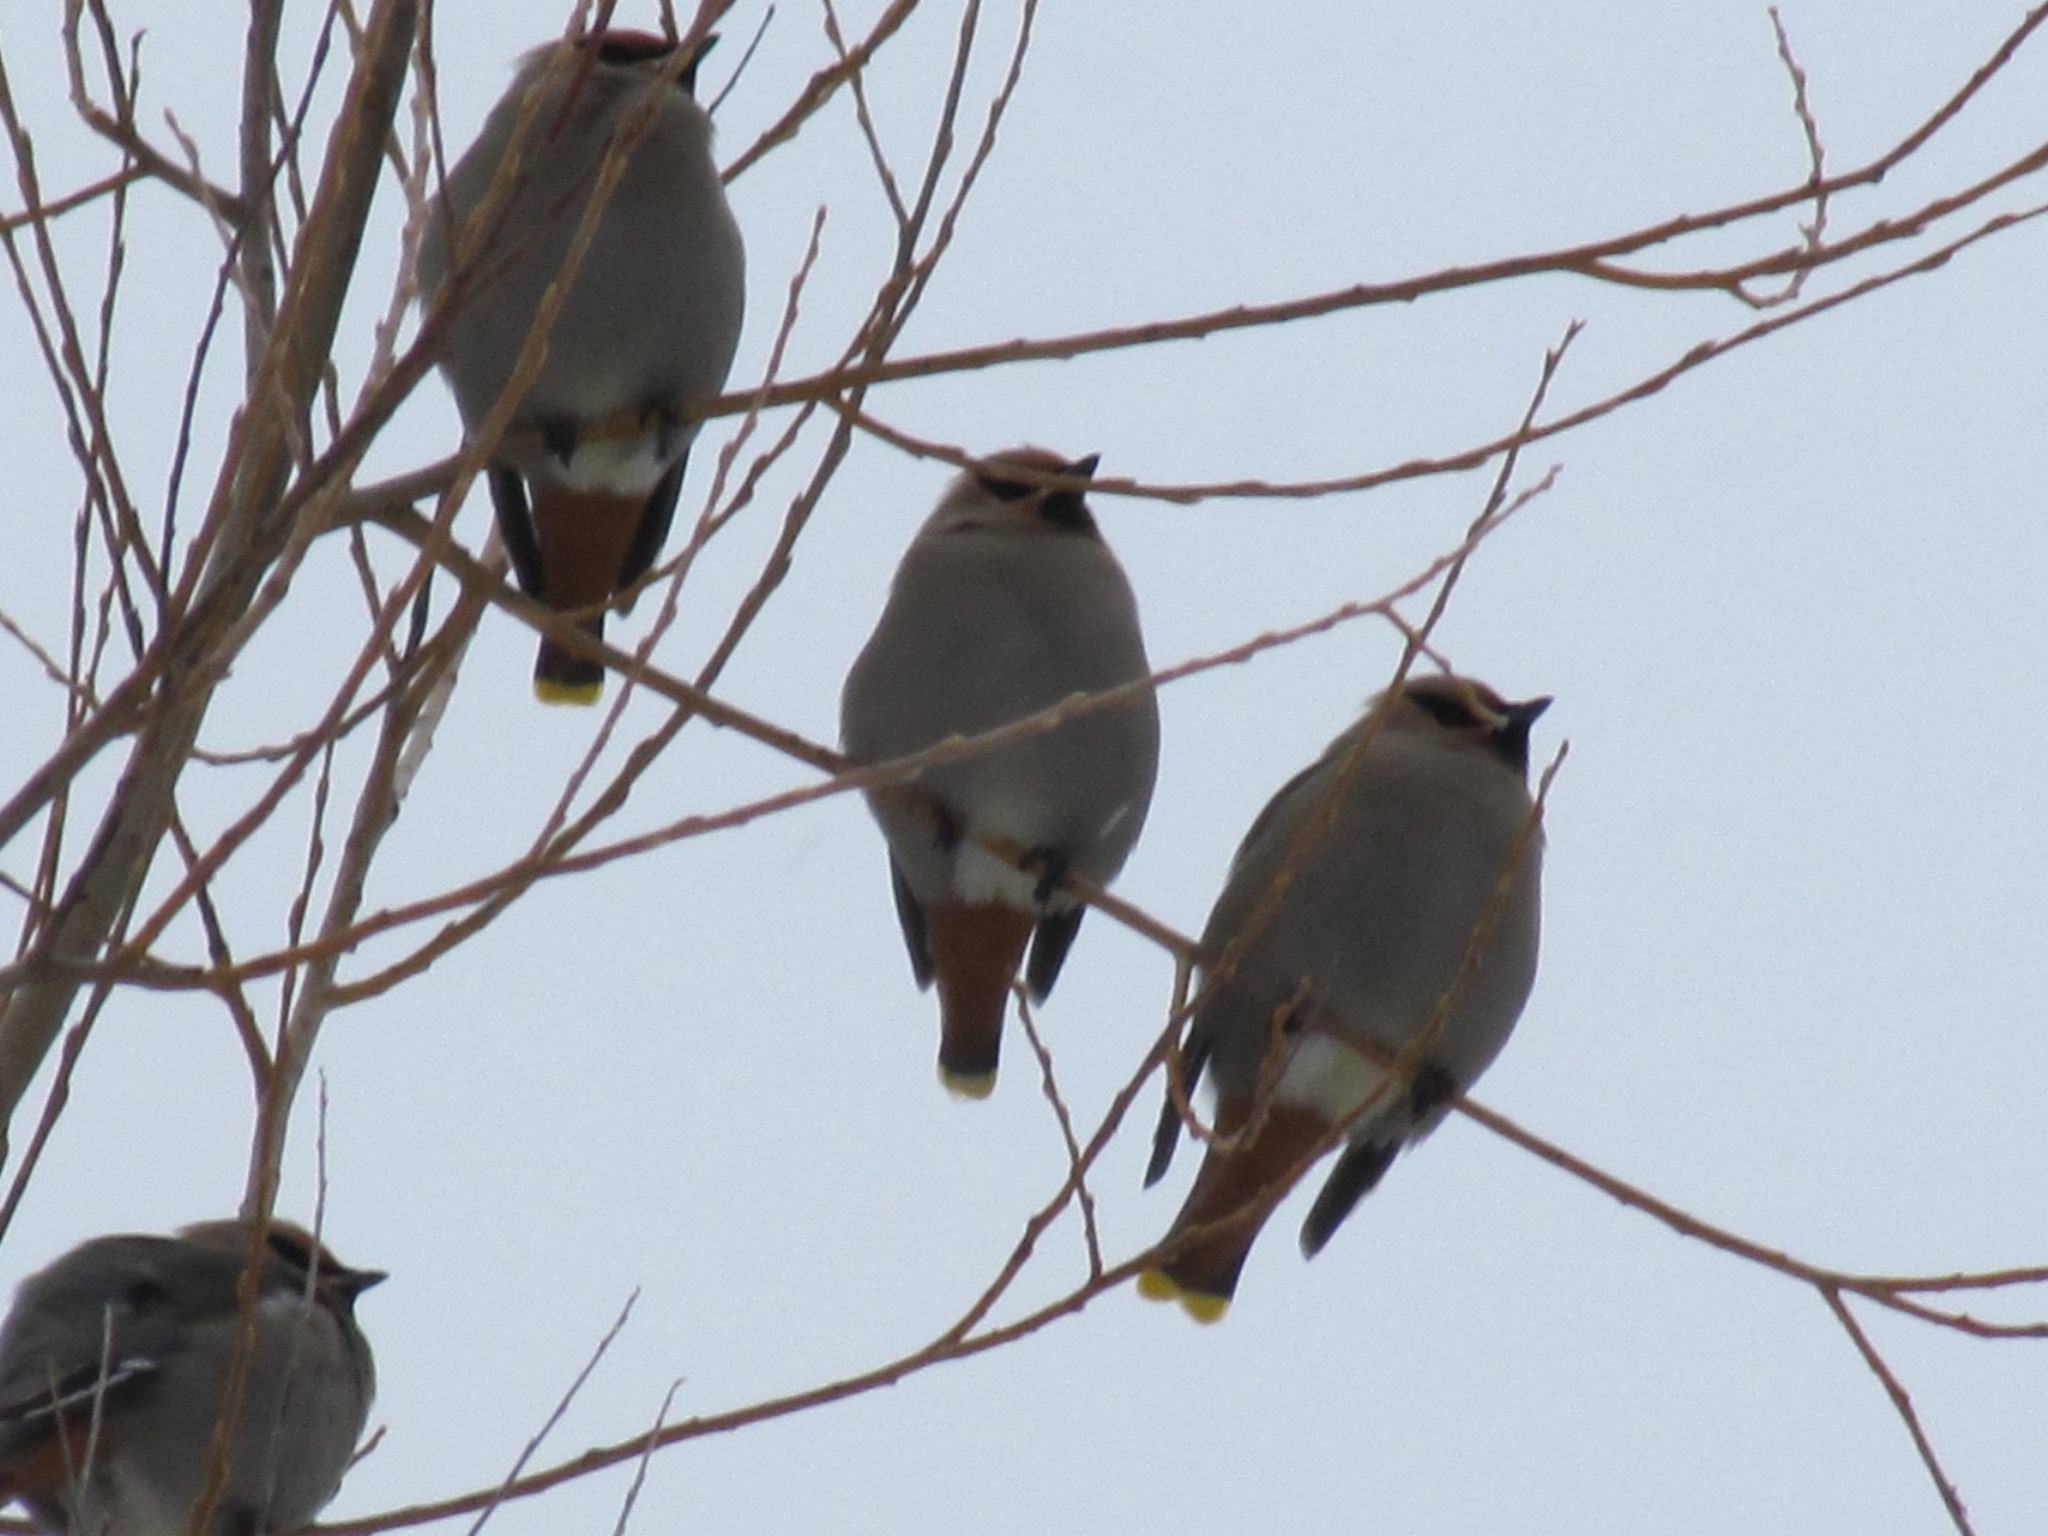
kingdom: Animalia
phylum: Chordata
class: Aves
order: Passeriformes
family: Bombycillidae
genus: Bombycilla
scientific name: Bombycilla garrulus
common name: Bohemian waxwing
